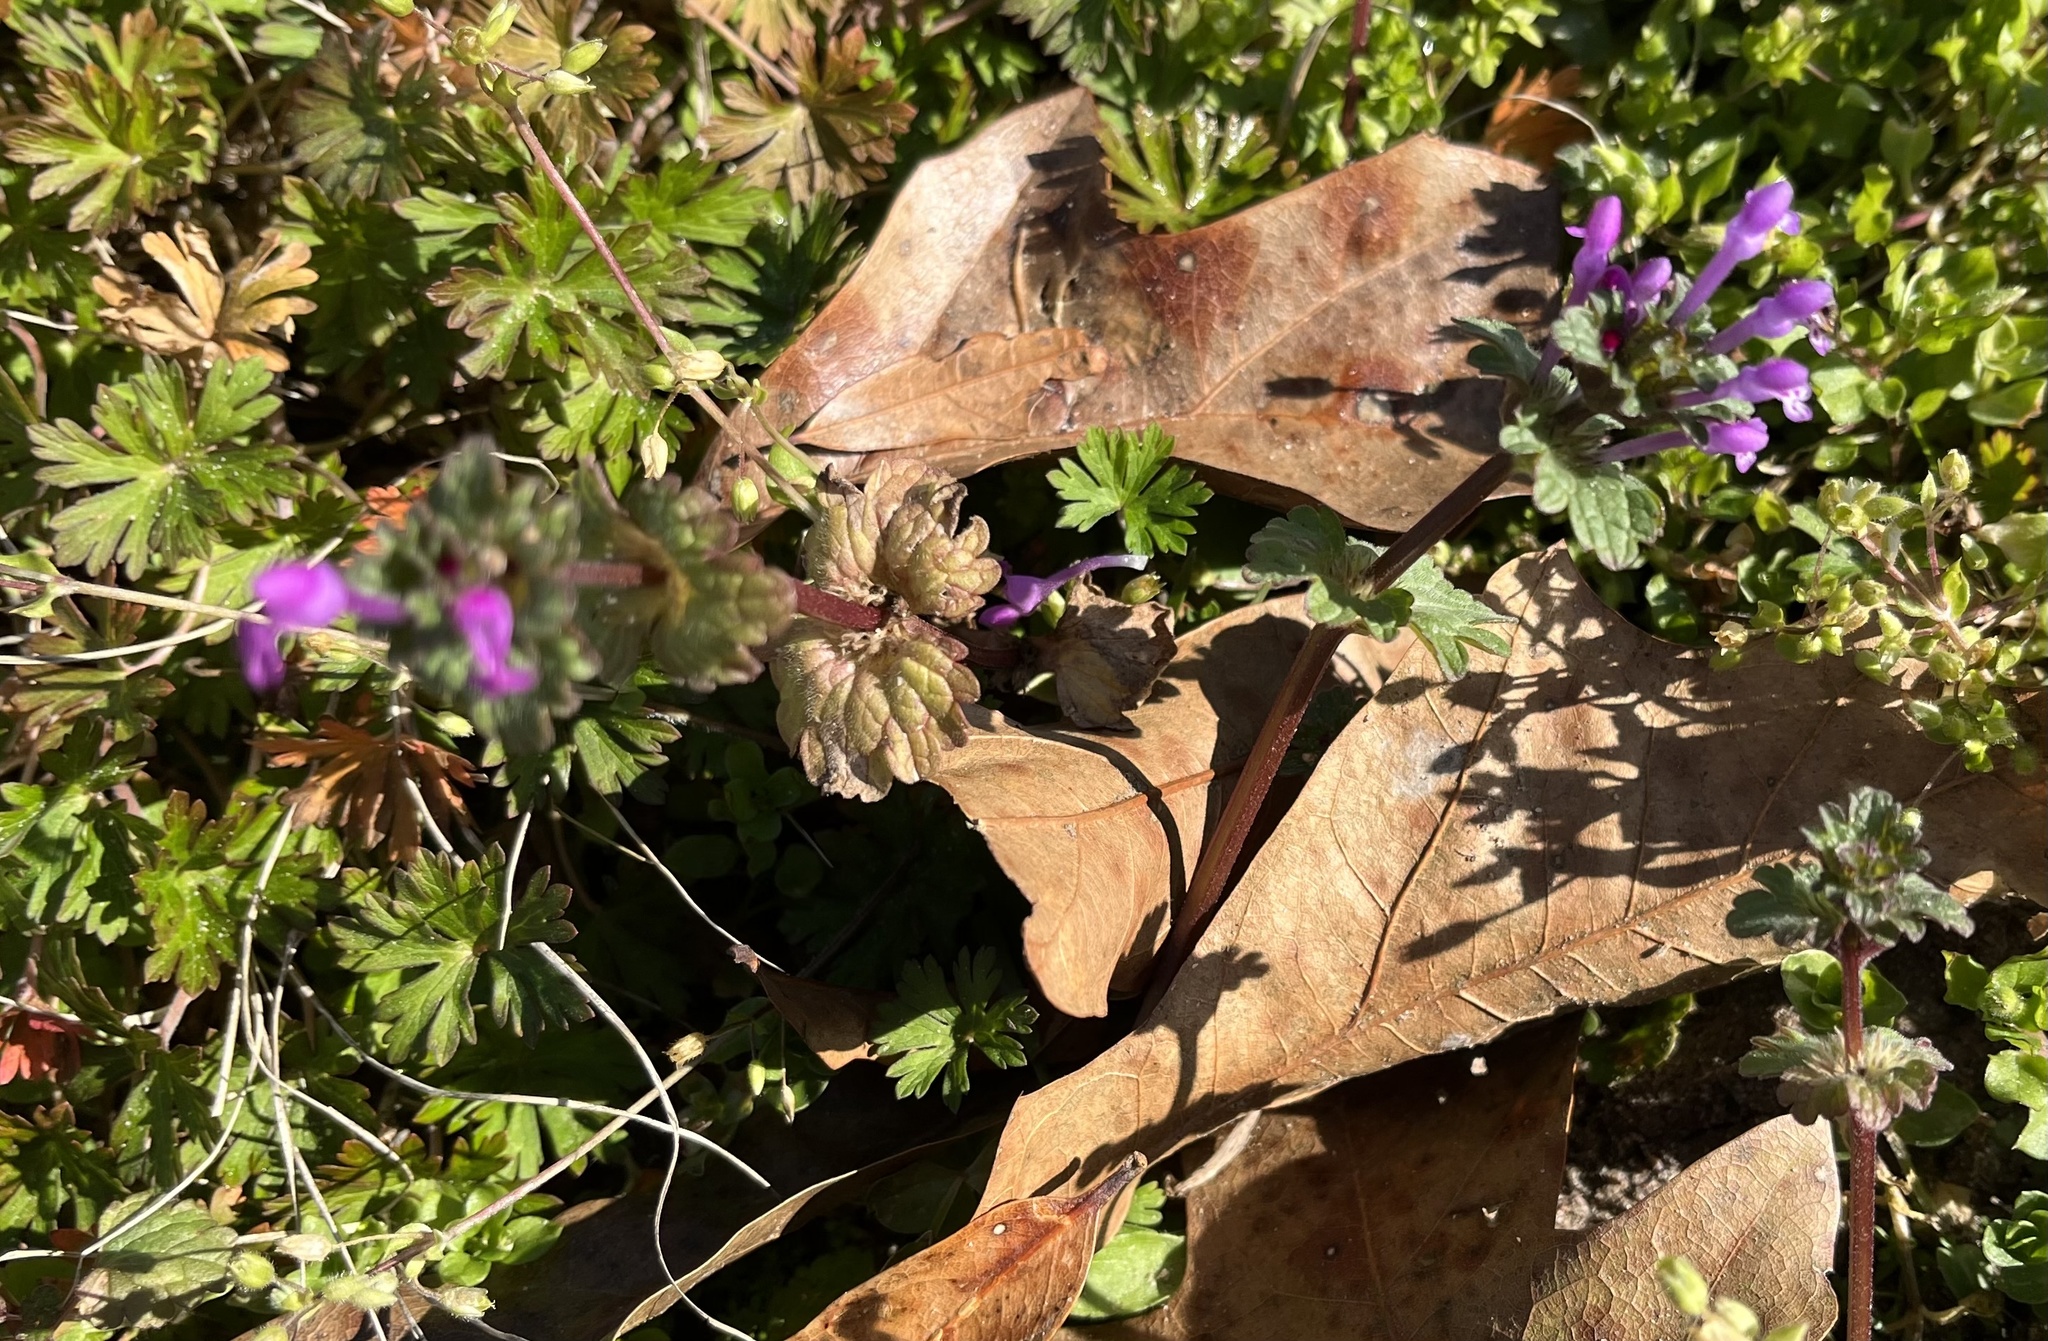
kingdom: Plantae
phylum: Tracheophyta
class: Magnoliopsida
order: Lamiales
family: Lamiaceae
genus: Lamium
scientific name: Lamium amplexicaule
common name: Henbit dead-nettle
